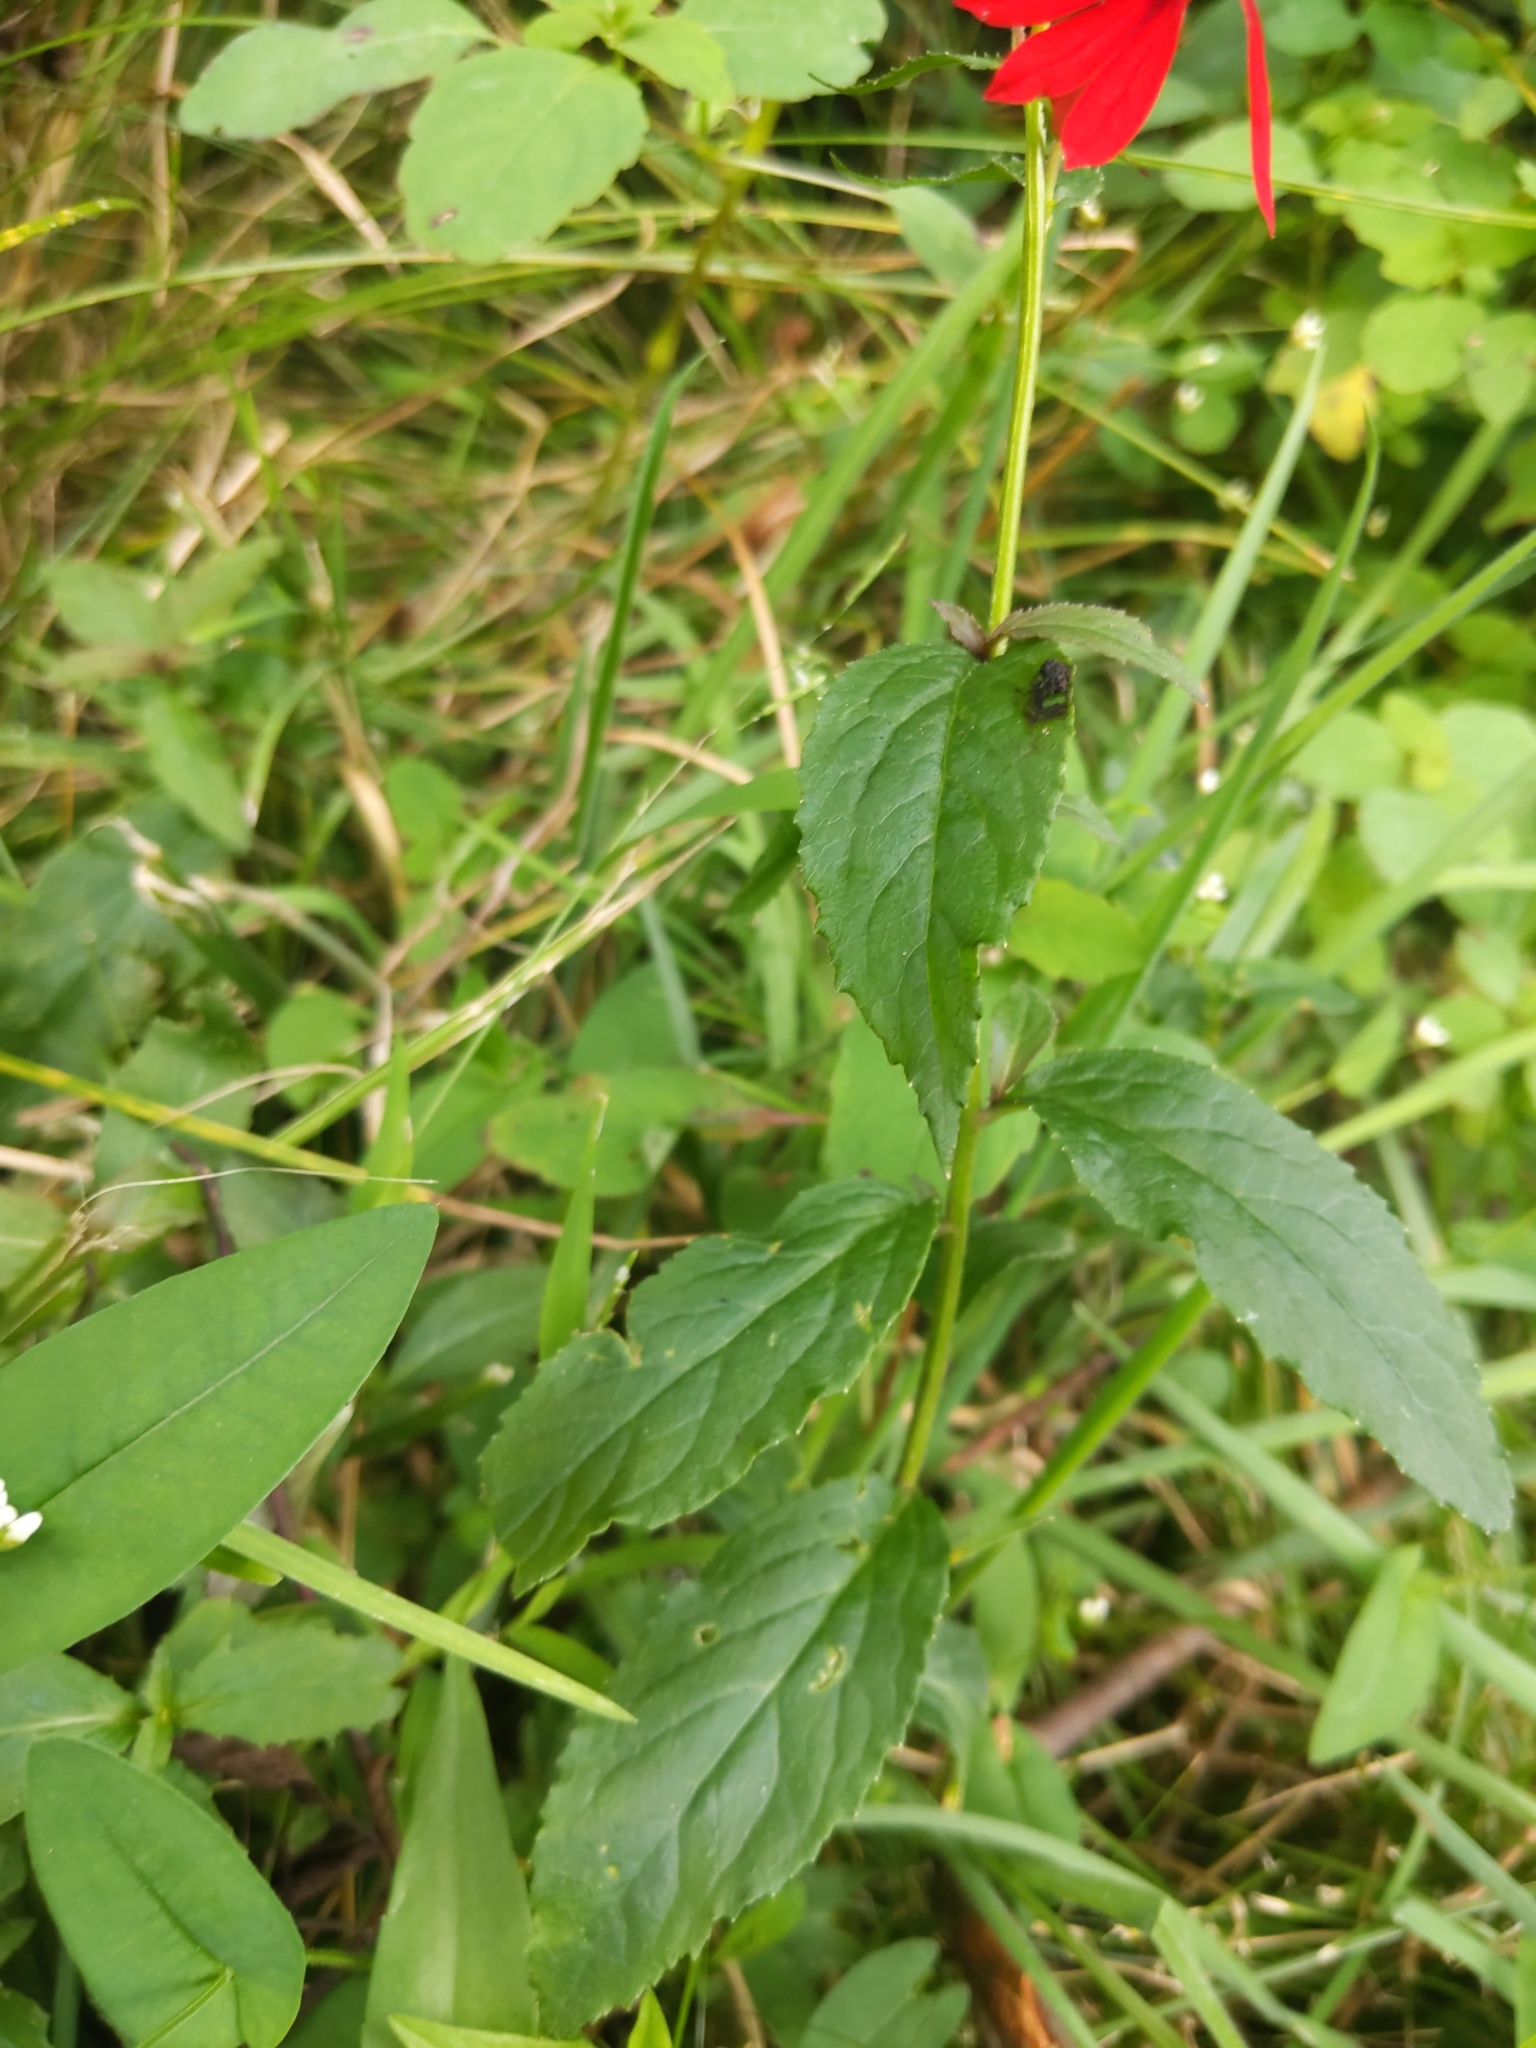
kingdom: Plantae
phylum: Tracheophyta
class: Magnoliopsida
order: Asterales
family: Campanulaceae
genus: Lobelia
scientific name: Lobelia cardinalis
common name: Cardinal flower
